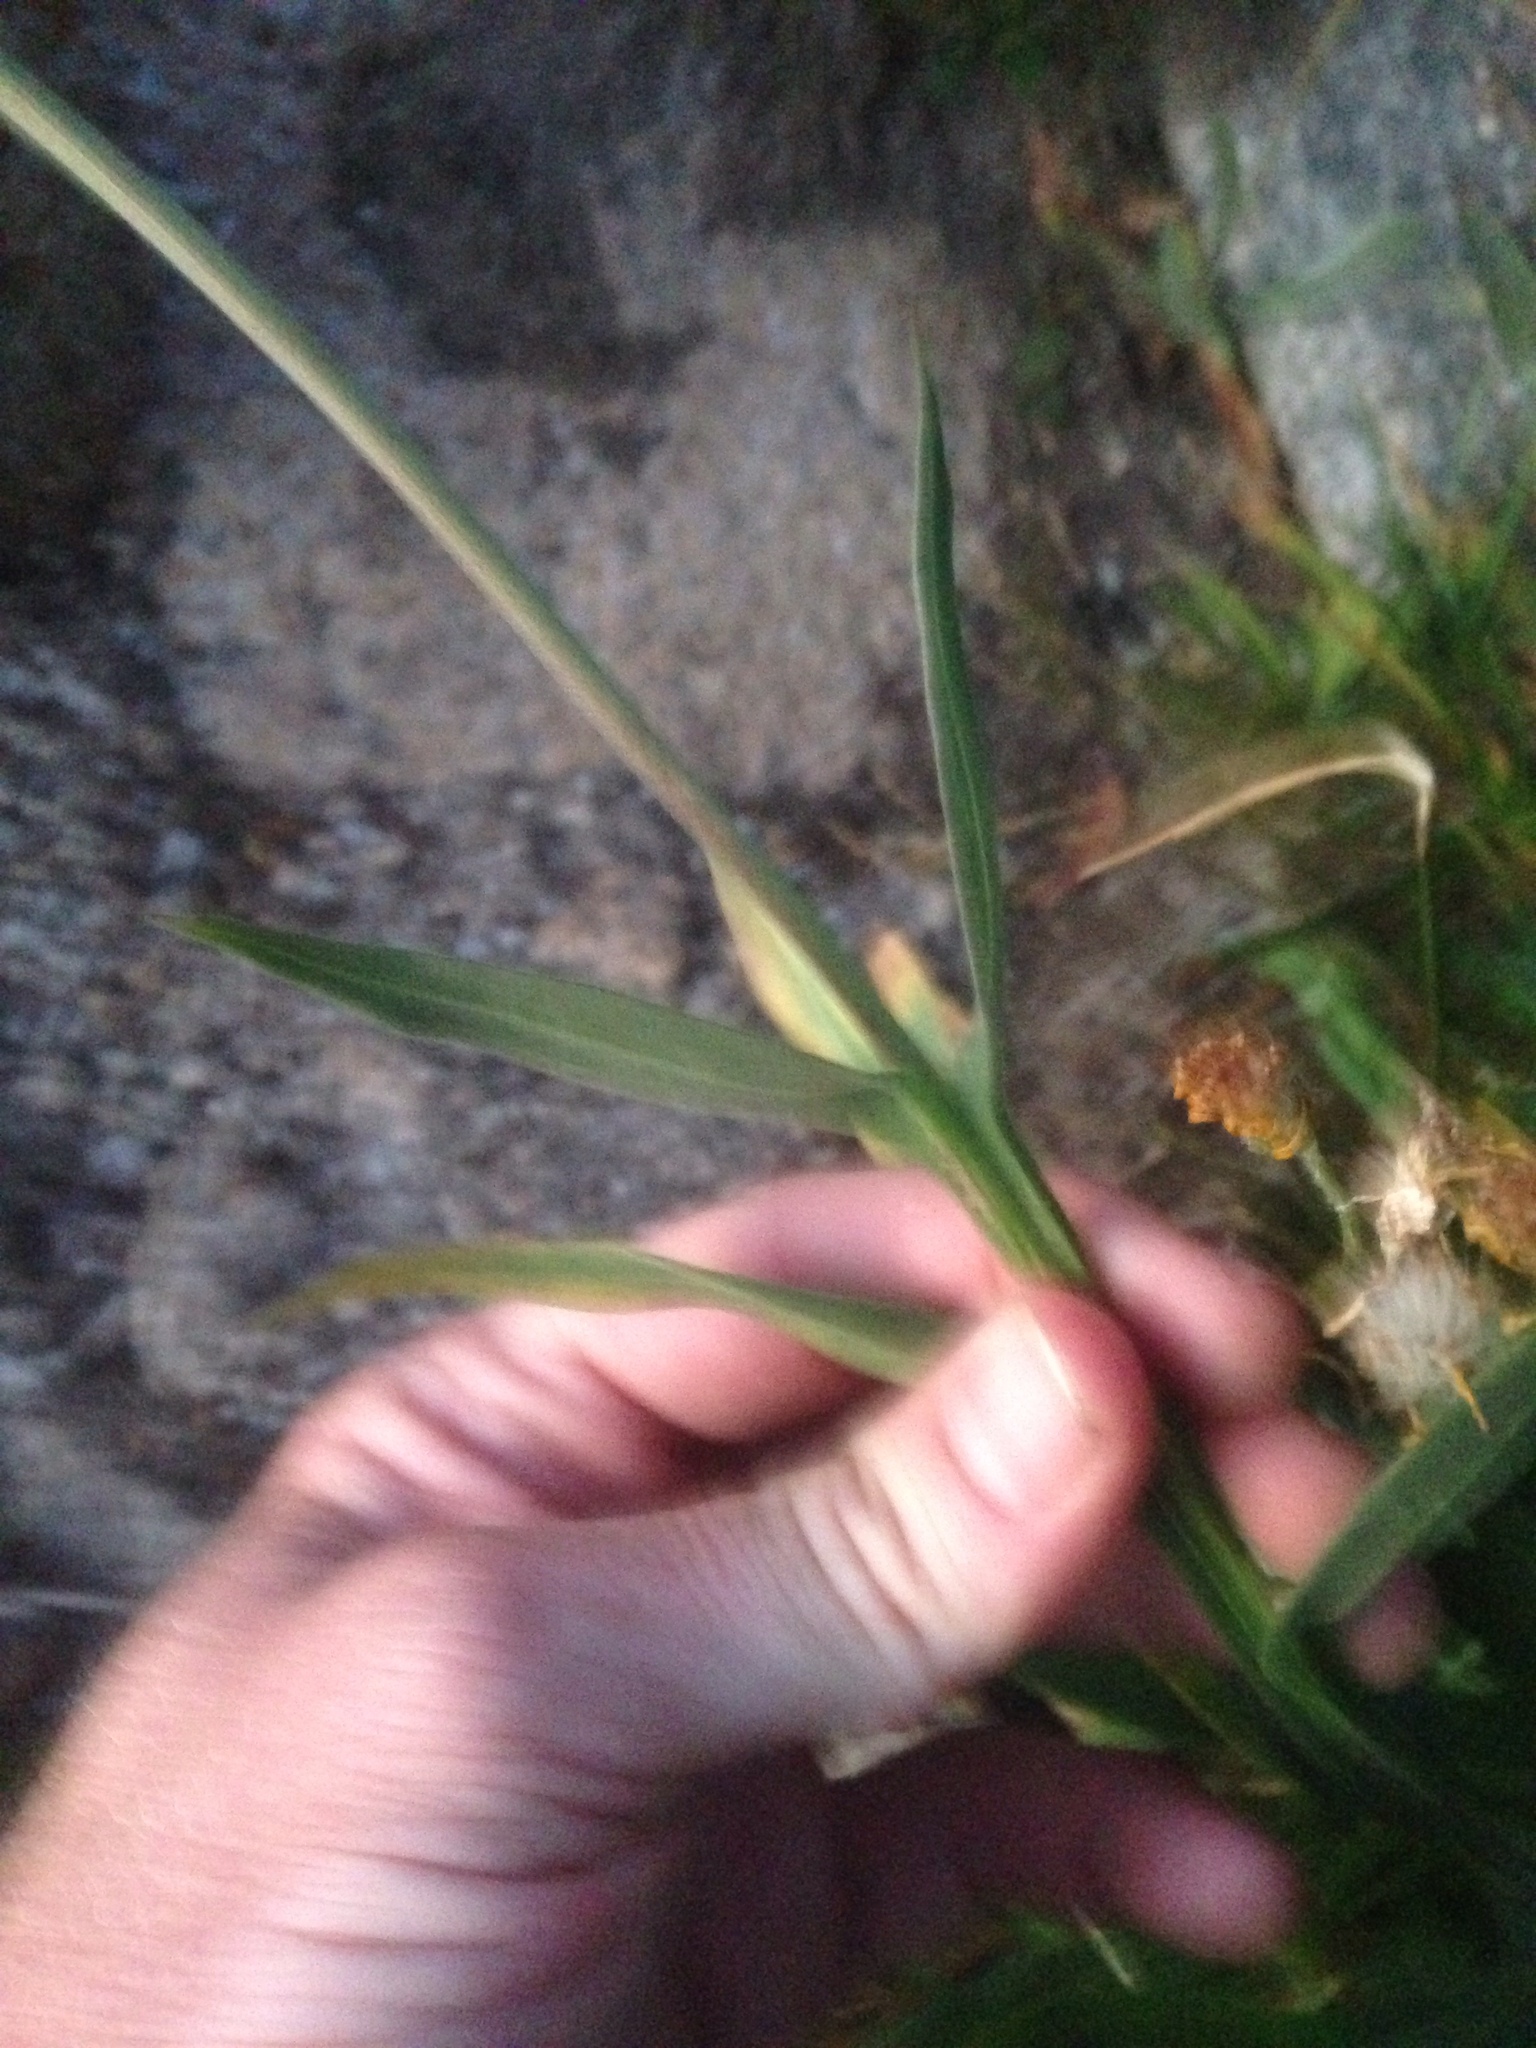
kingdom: Plantae
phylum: Tracheophyta
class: Magnoliopsida
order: Asterales
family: Asteraceae
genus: Helenium
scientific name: Helenium bigelovii
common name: Bigelow's sneezeweed
